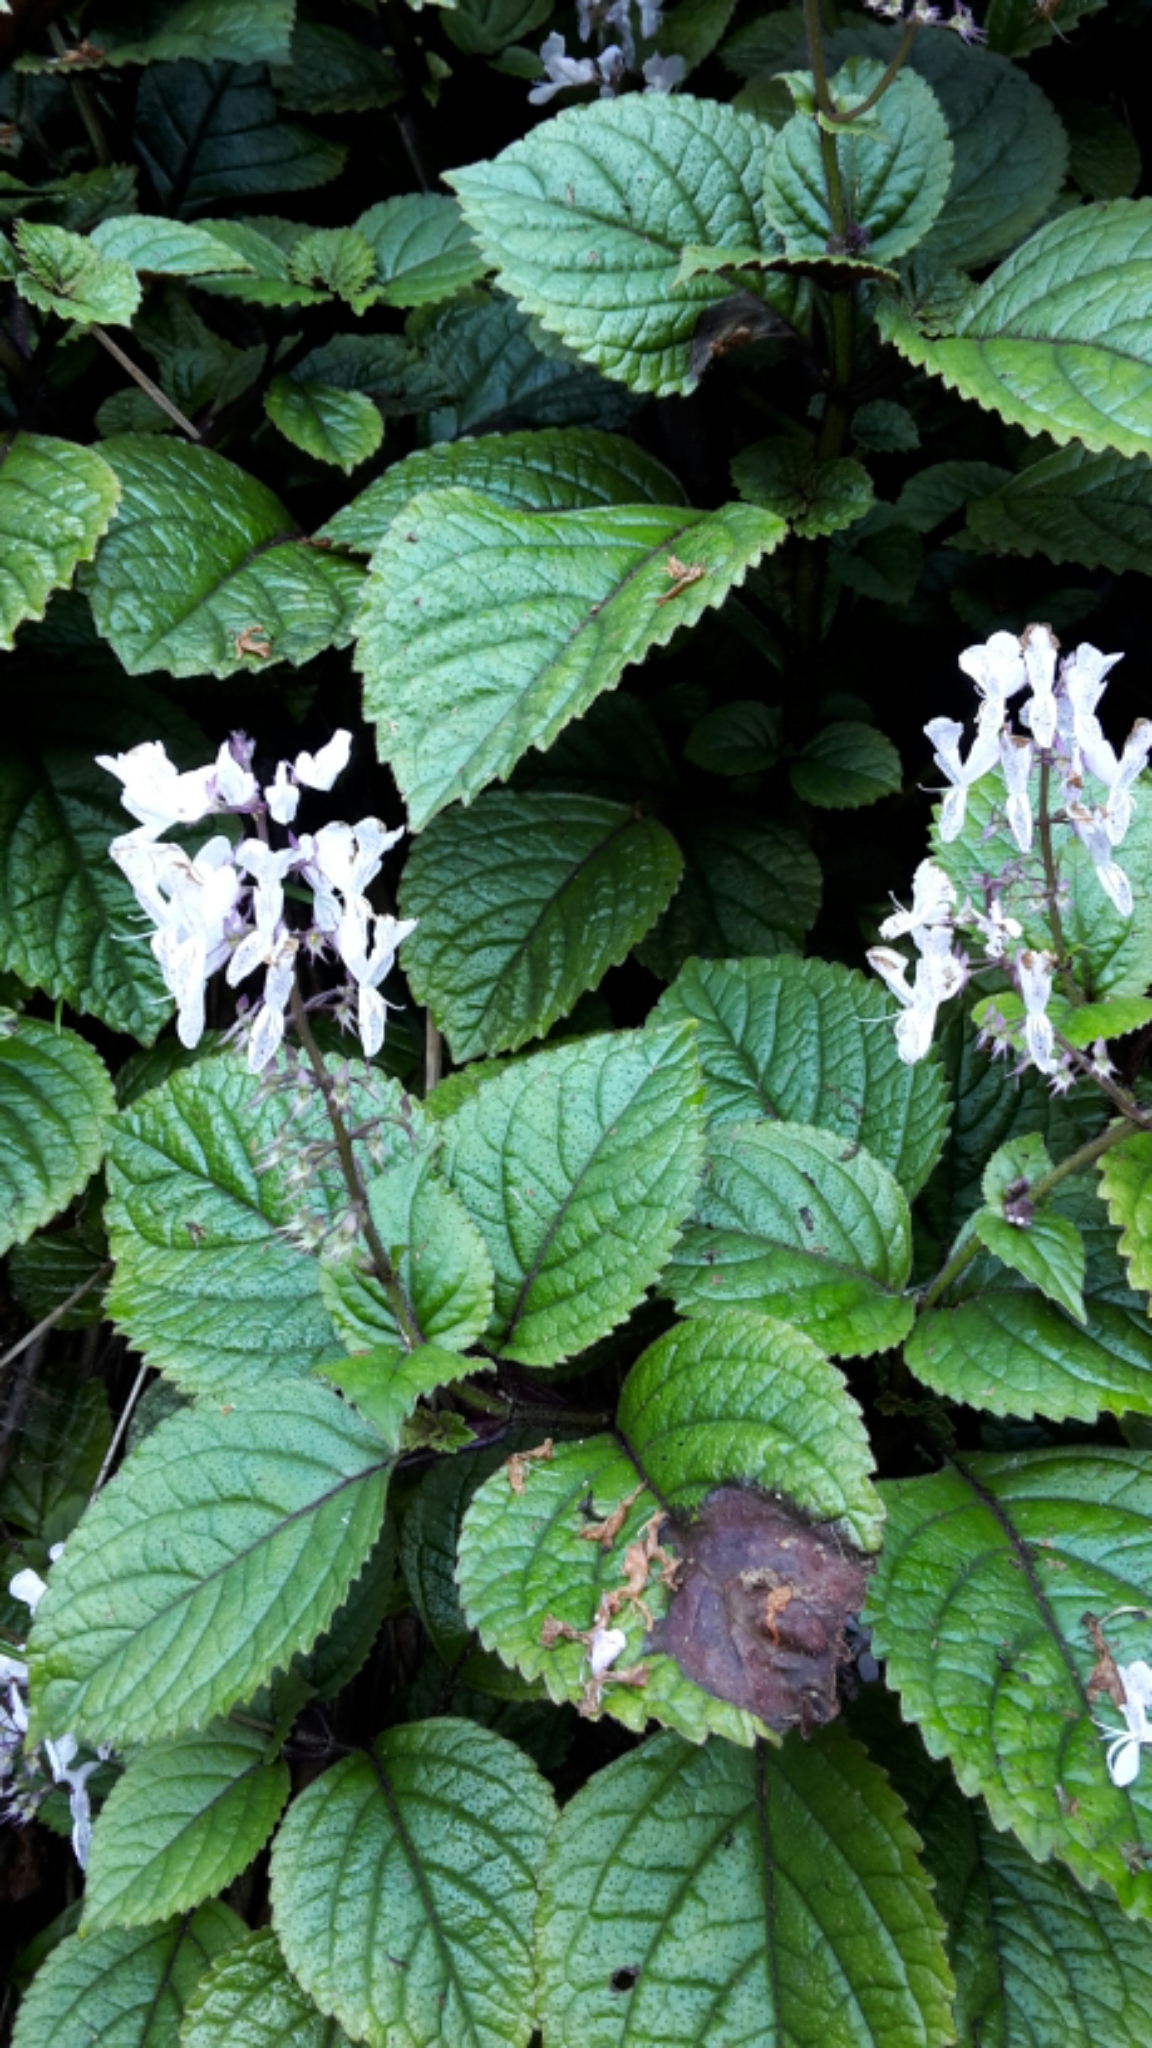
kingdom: Plantae
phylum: Tracheophyta
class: Magnoliopsida
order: Lamiales
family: Lamiaceae
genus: Plectranthus
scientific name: Plectranthus ciliatus
